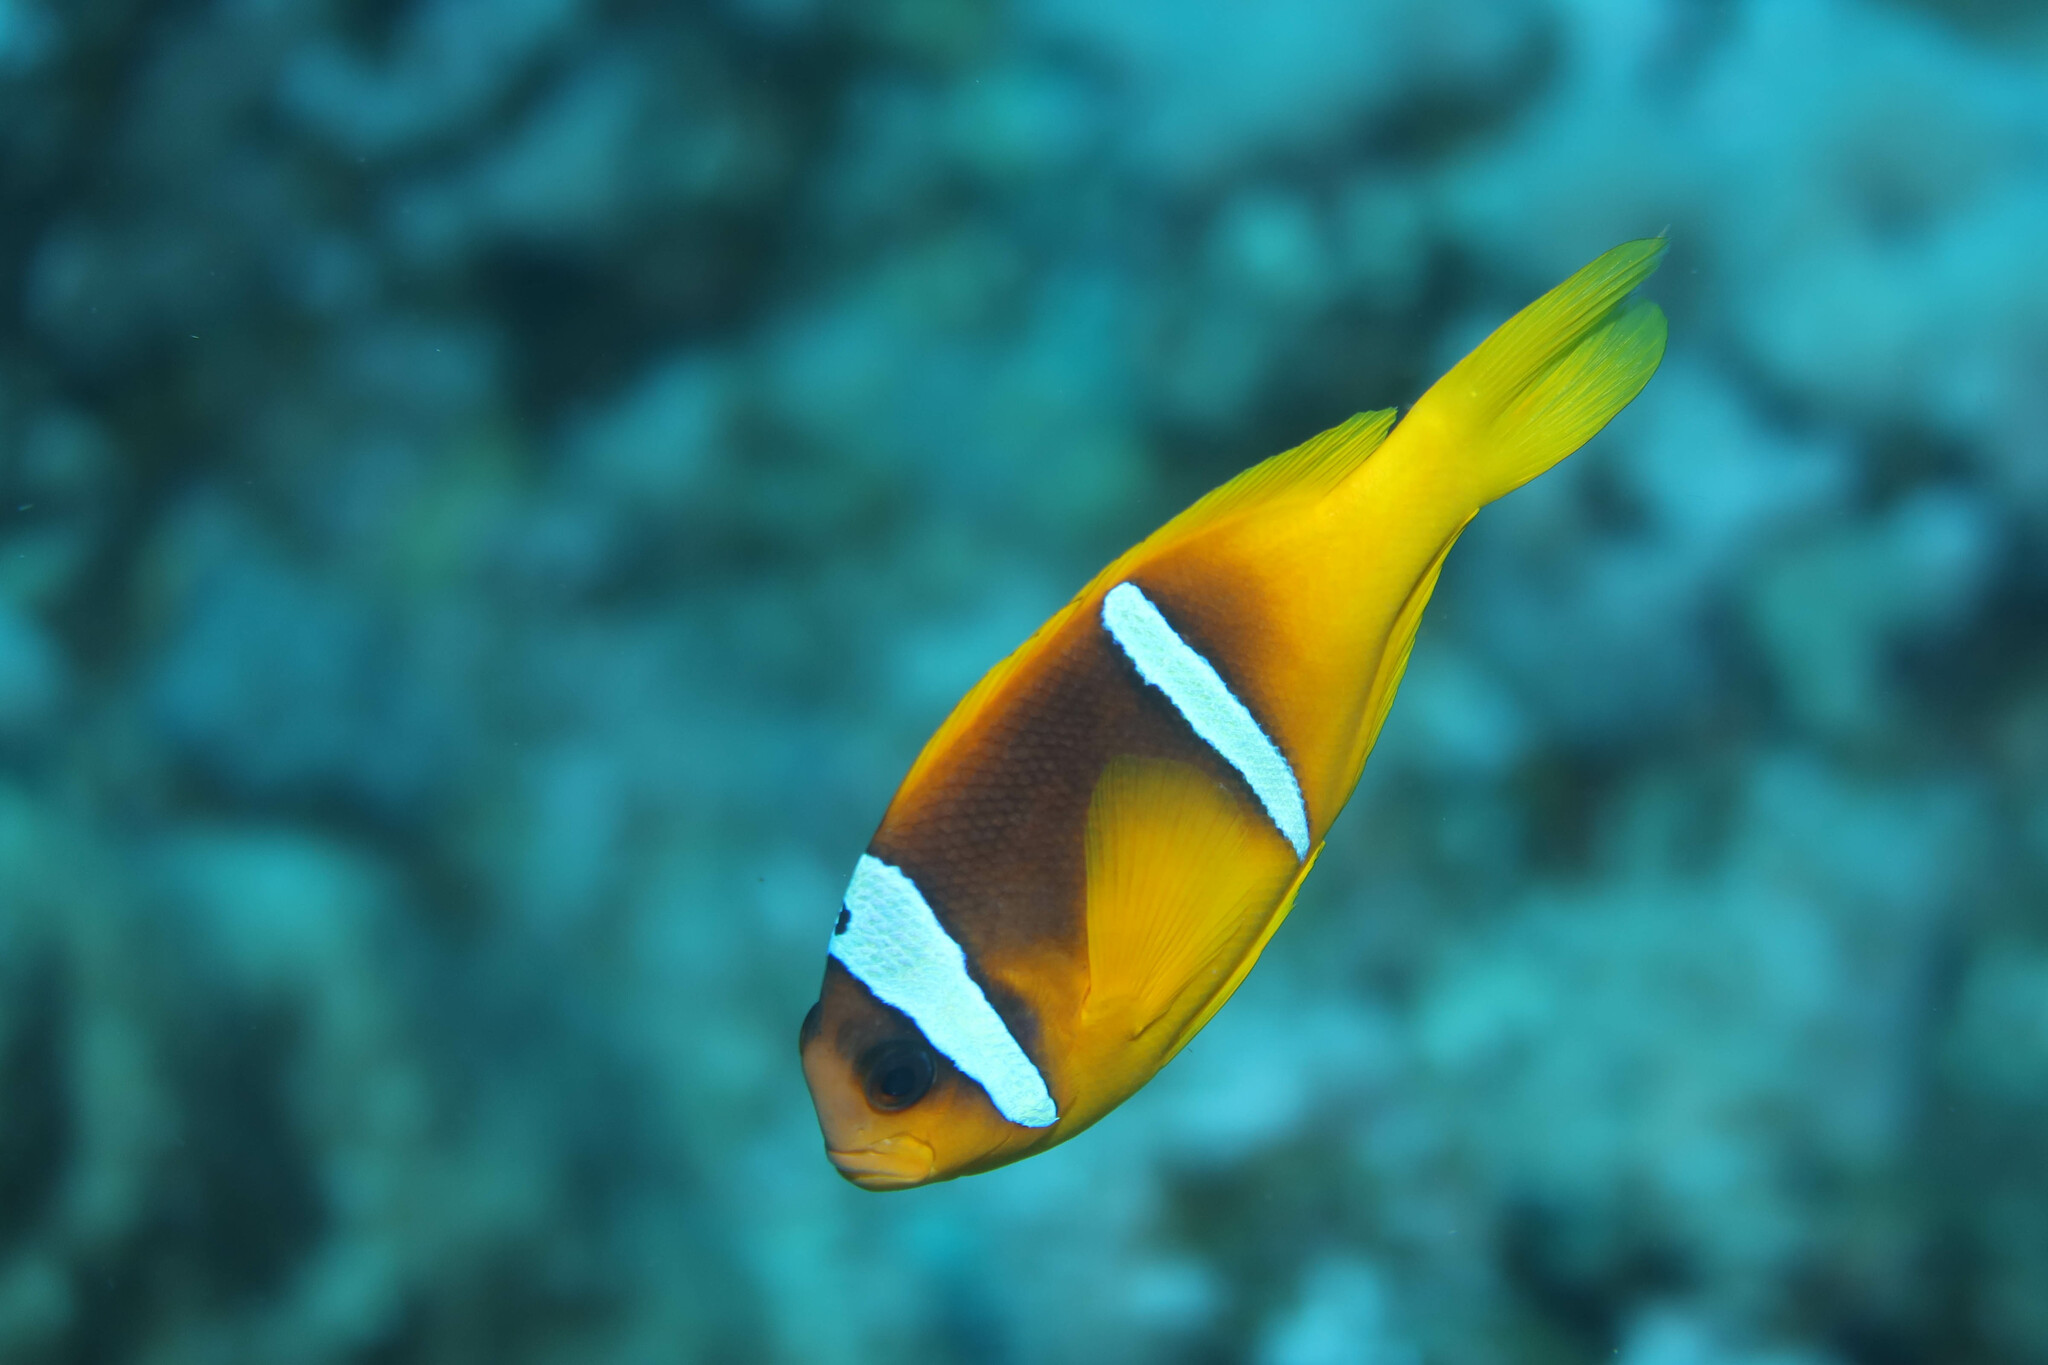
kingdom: Animalia
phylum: Chordata
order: Perciformes
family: Pomacentridae
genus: Amphiprion
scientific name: Amphiprion bicinctus
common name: Two-banded anemonefish
